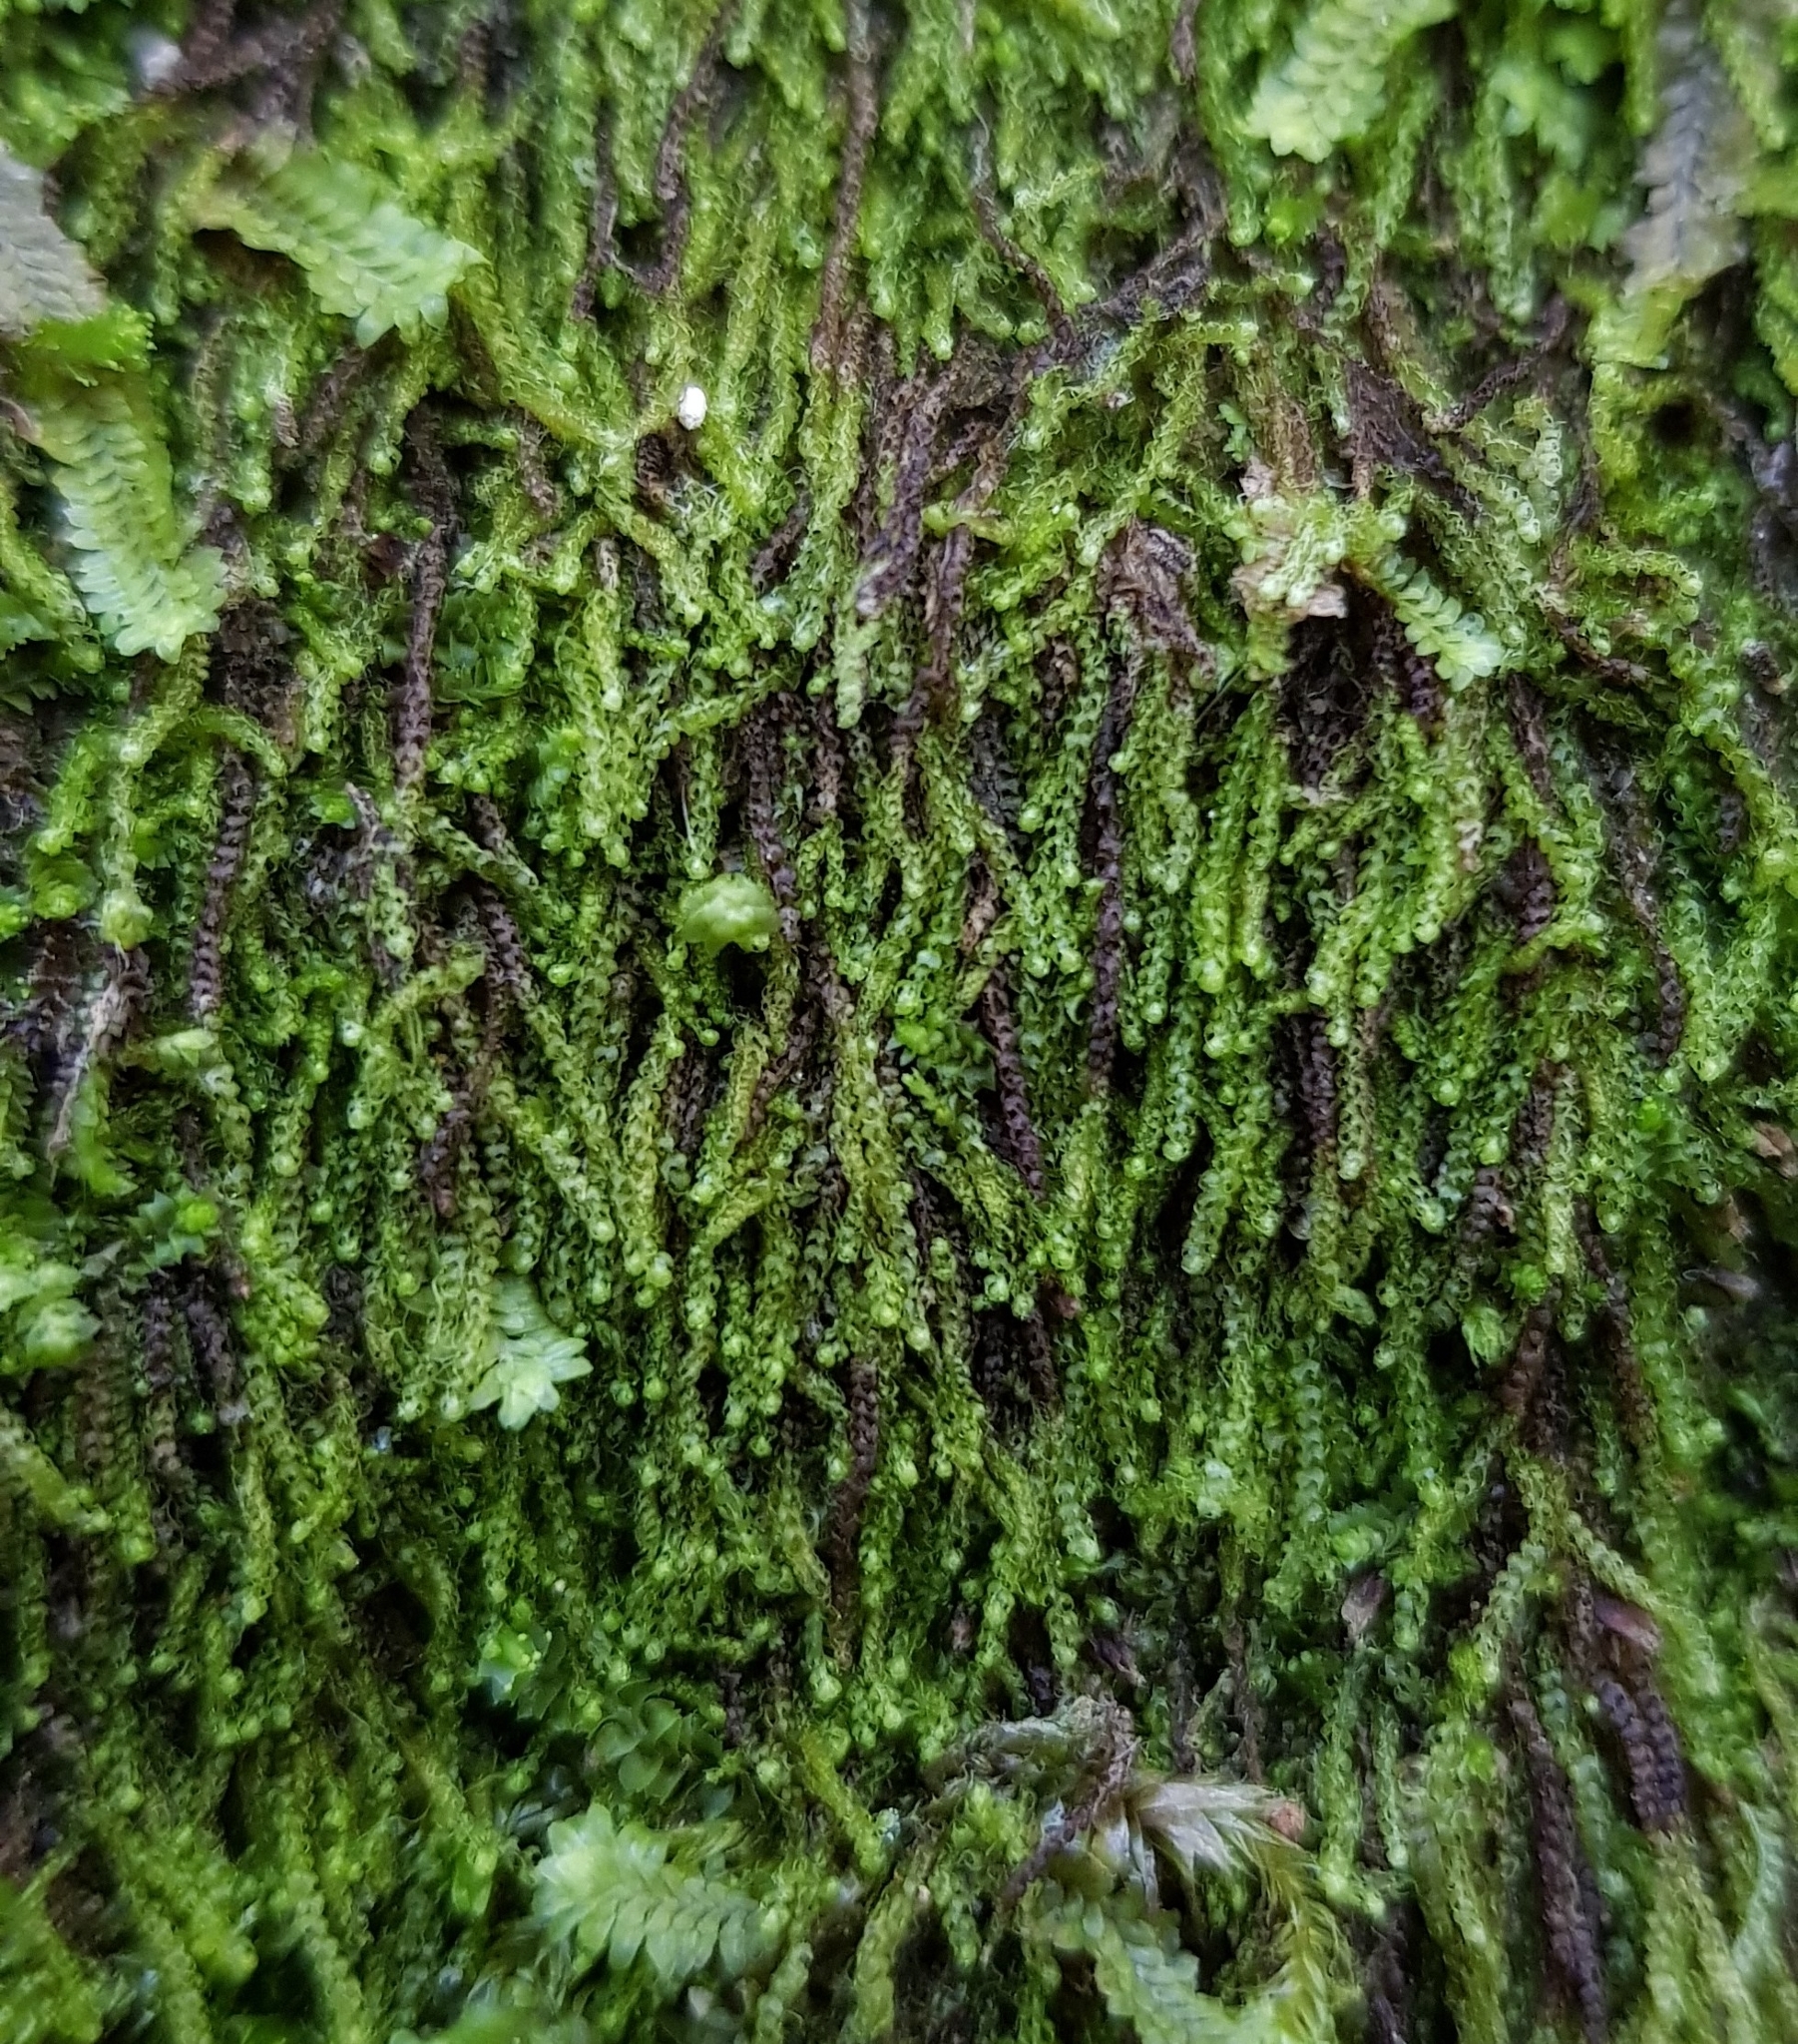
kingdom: Plantae
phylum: Marchantiophyta
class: Jungermanniopsida
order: Jungermanniales
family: Cephaloziaceae
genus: Nowellia
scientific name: Nowellia curvifolia
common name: Wood rustwort
